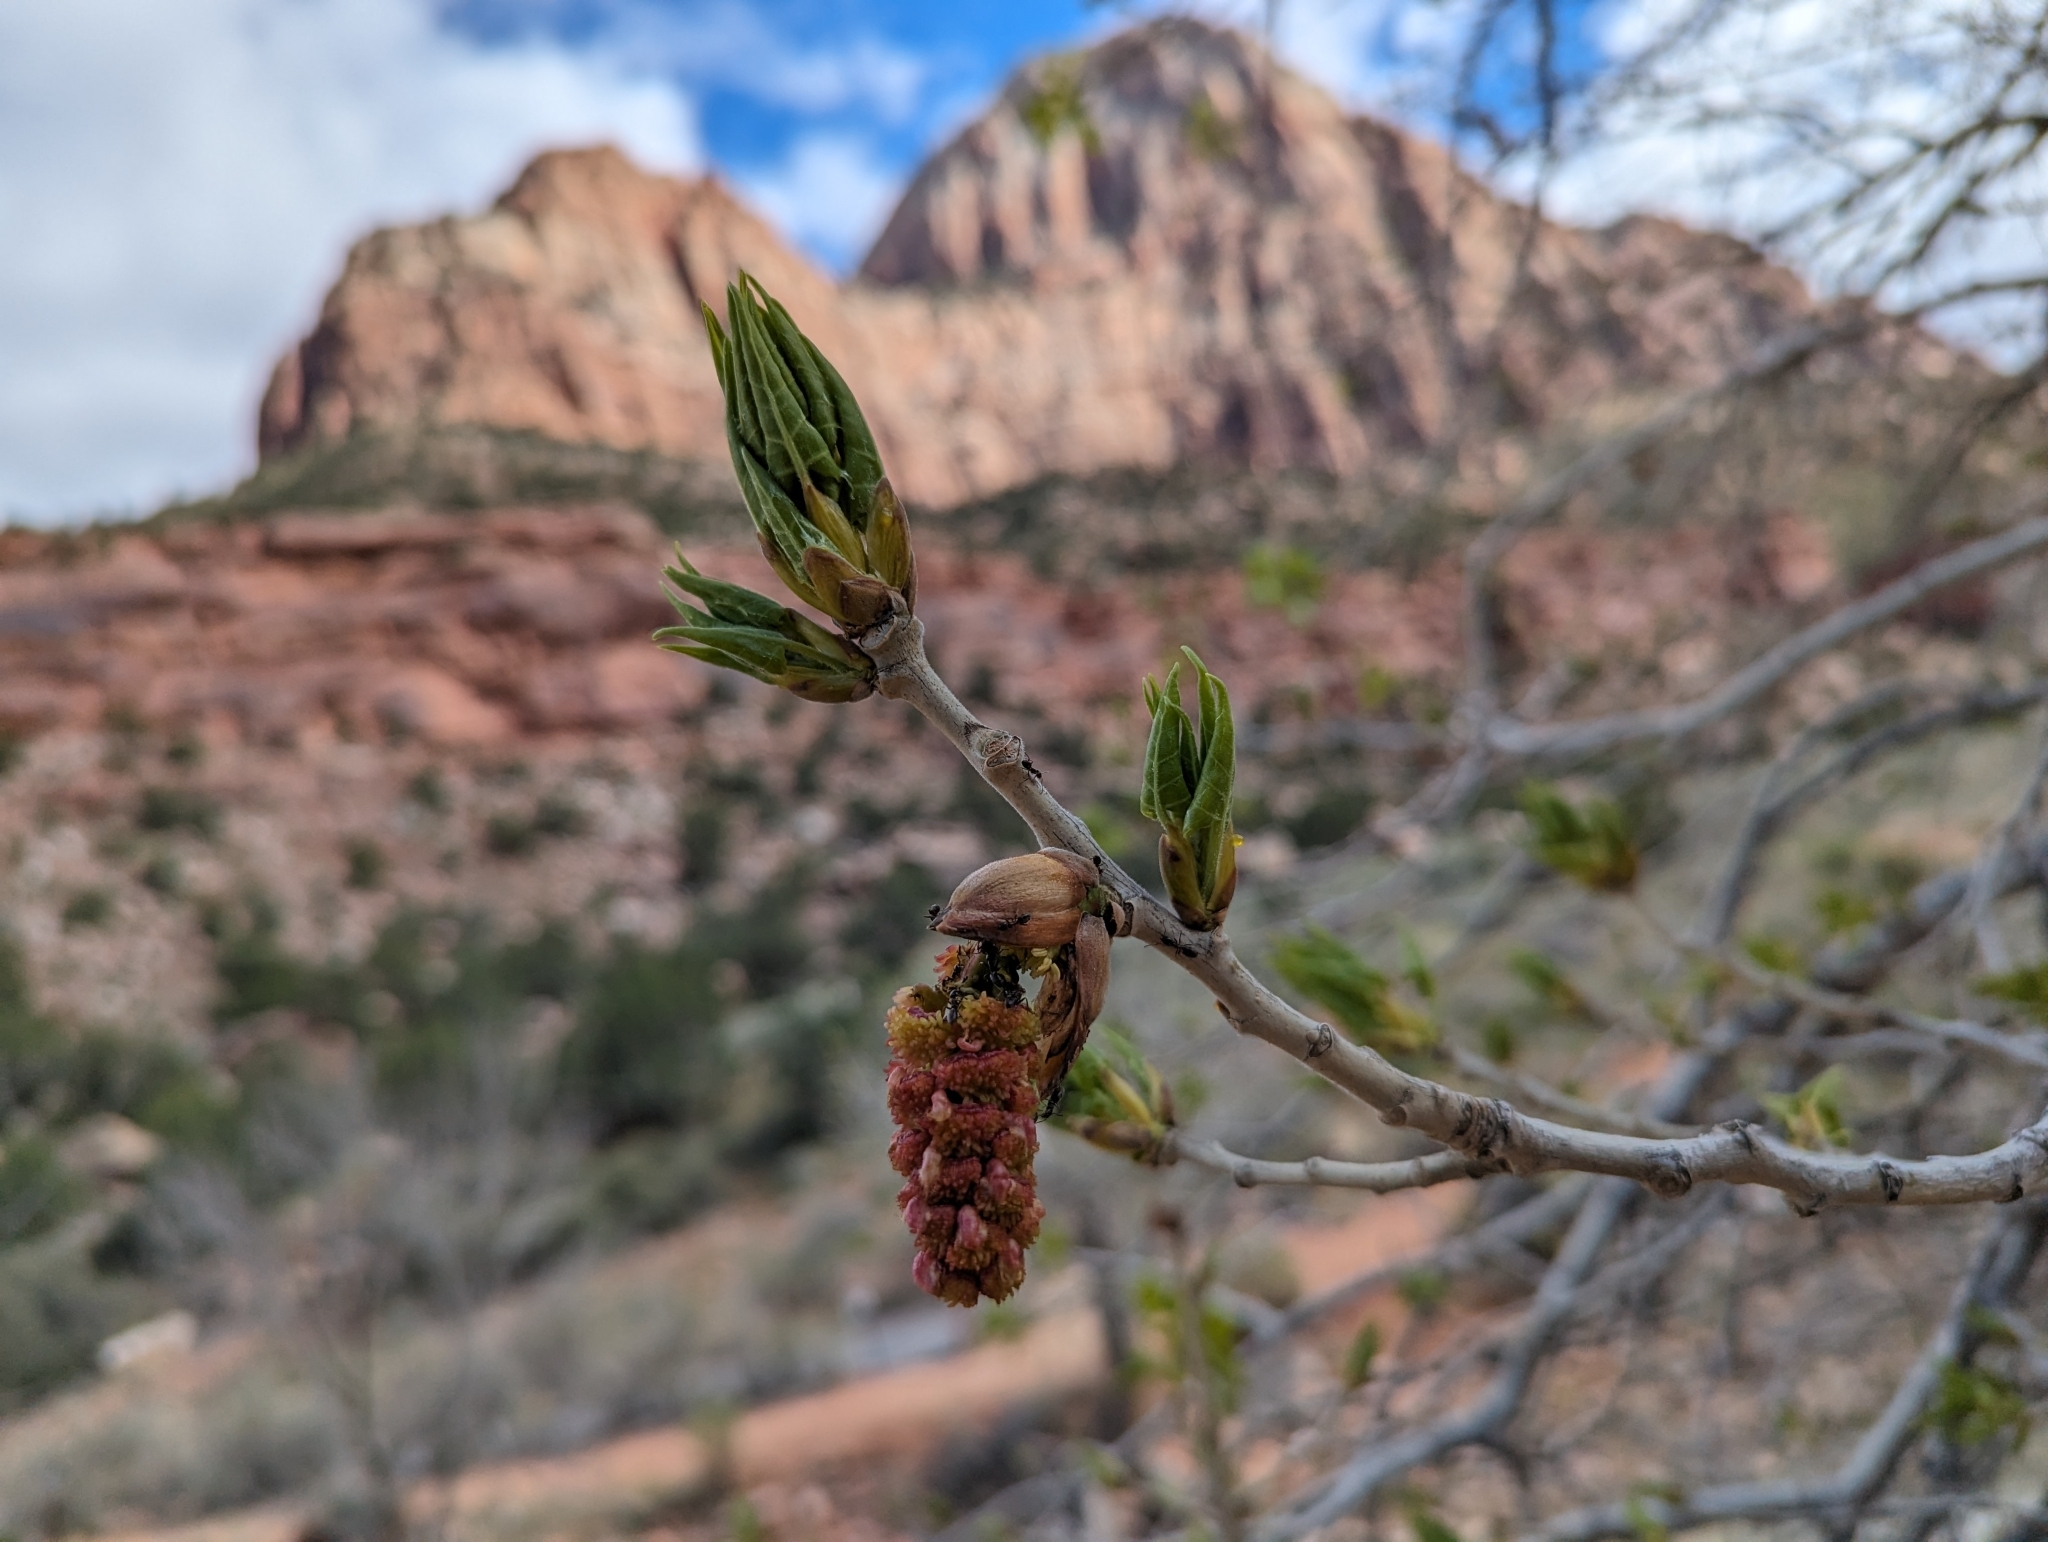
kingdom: Plantae
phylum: Tracheophyta
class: Magnoliopsida
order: Malpighiales
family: Salicaceae
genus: Populus
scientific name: Populus fremontii
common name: Fremont's cottonwood
